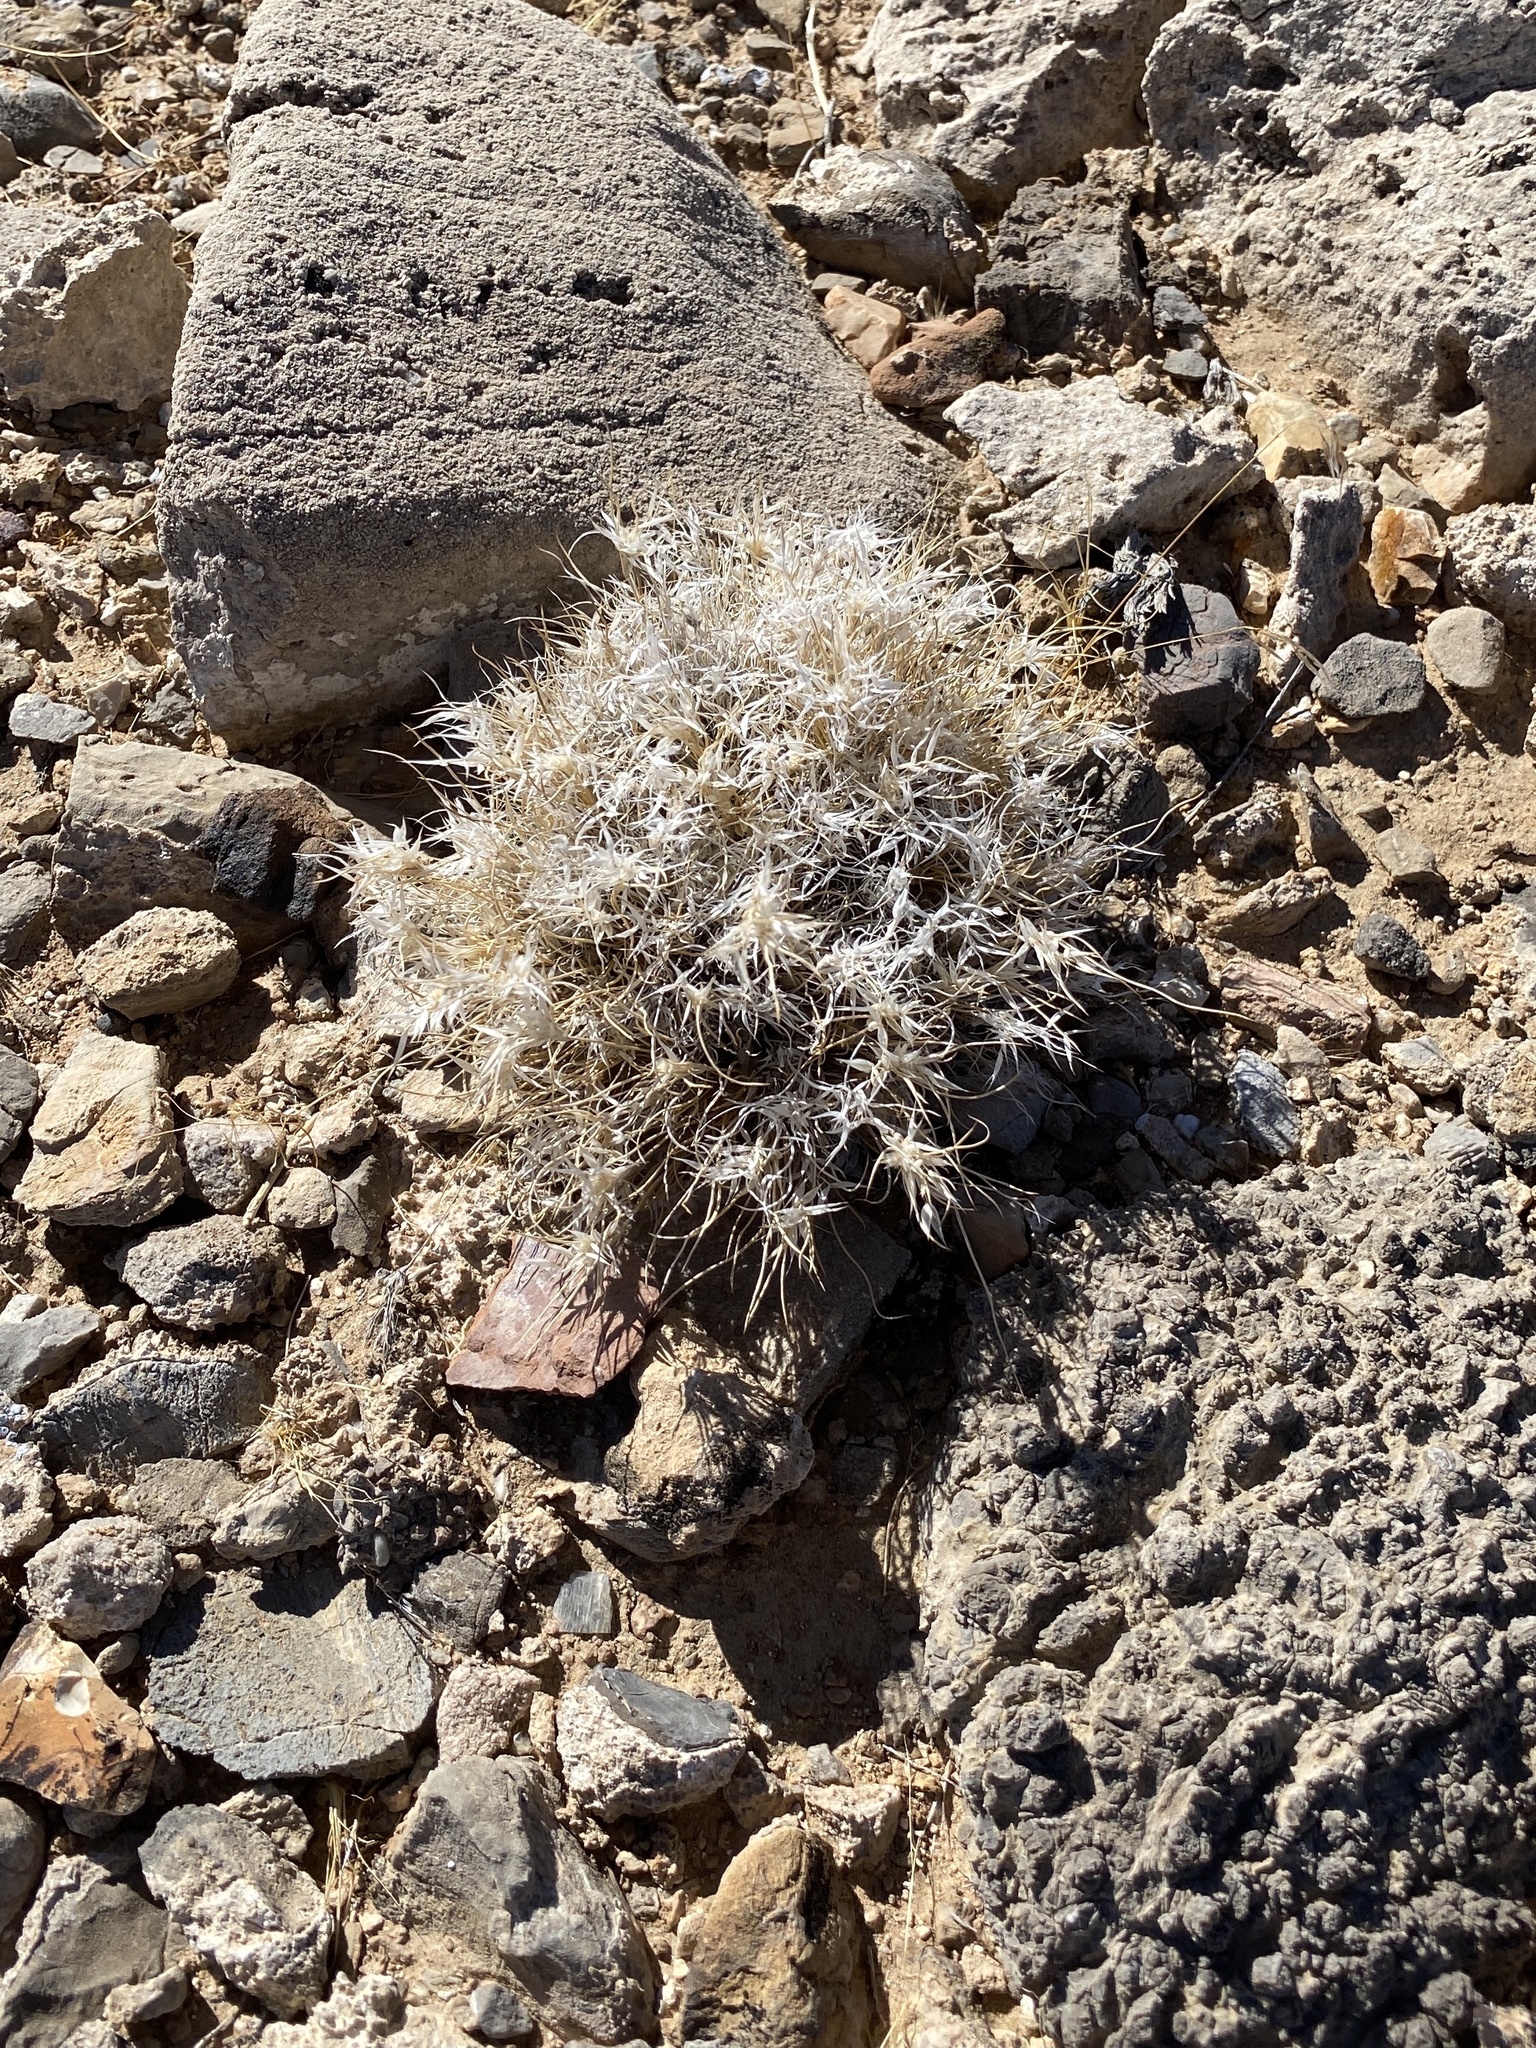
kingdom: Plantae
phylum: Tracheophyta
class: Liliopsida
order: Poales
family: Poaceae
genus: Dasyochloa
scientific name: Dasyochloa pulchella
